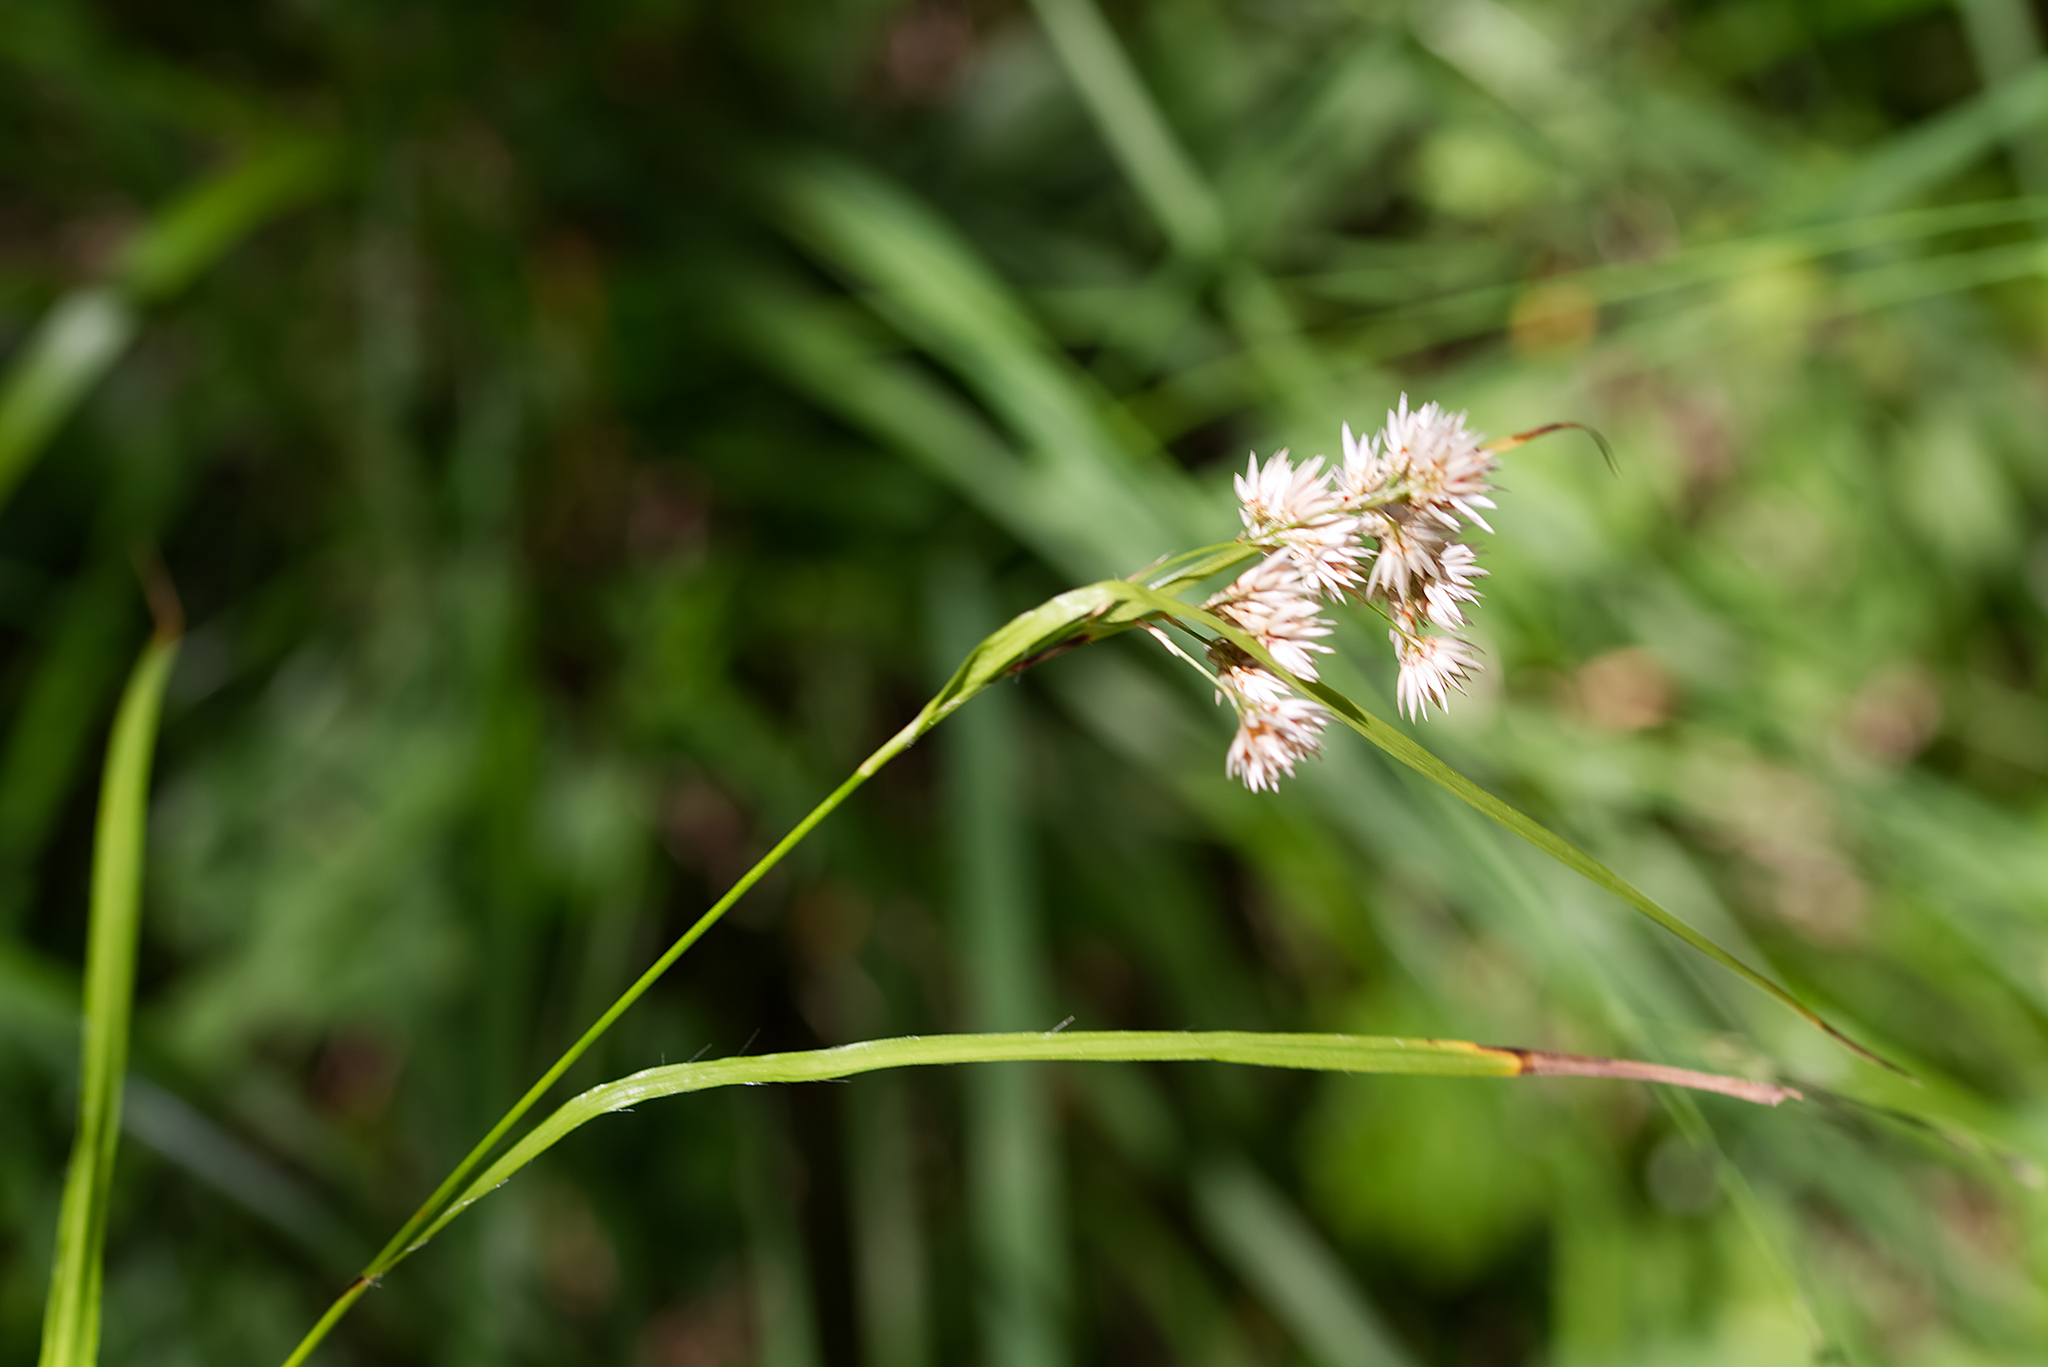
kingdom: Plantae
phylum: Tracheophyta
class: Liliopsida
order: Poales
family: Juncaceae
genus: Luzula
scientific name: Luzula nivea
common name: Snow-white wood-rush
